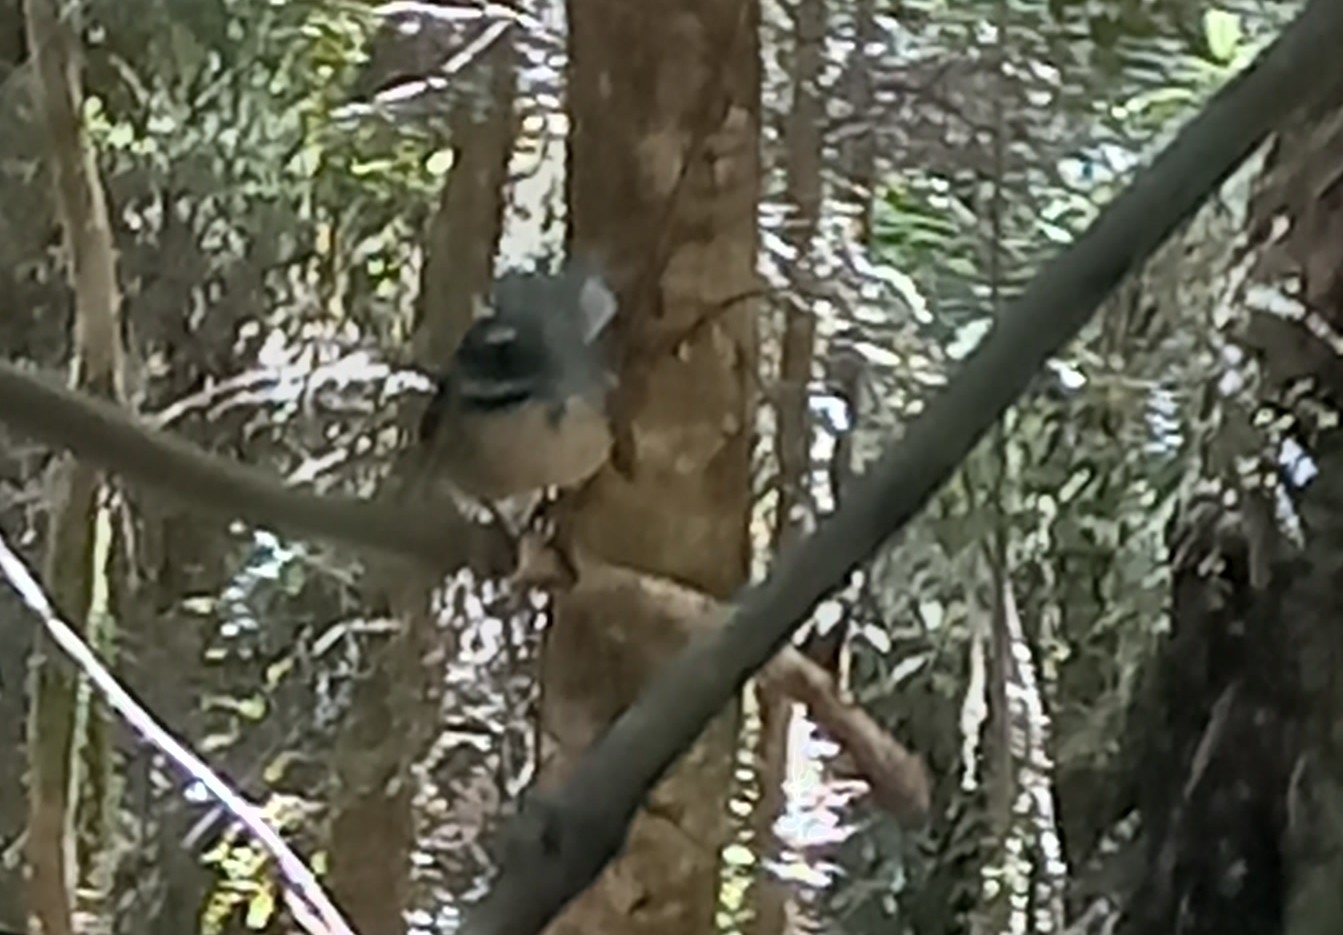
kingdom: Animalia
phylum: Chordata
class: Aves
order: Passeriformes
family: Rhipiduridae
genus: Rhipidura
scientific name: Rhipidura fuliginosa
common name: New zealand fantail
